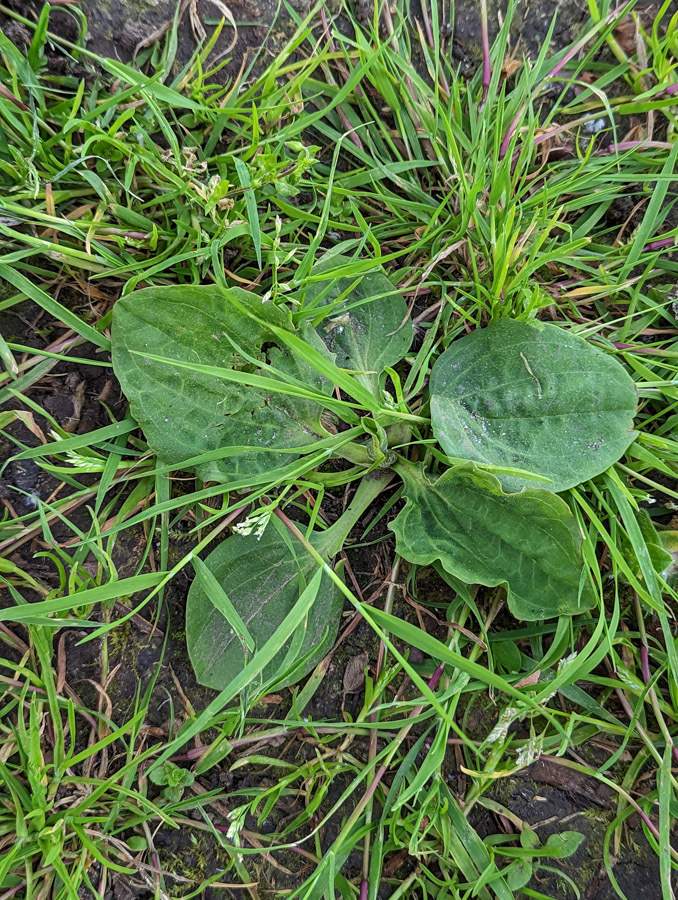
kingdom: Plantae
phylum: Tracheophyta
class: Magnoliopsida
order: Lamiales
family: Plantaginaceae
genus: Plantago
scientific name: Plantago major
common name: Common plantain
